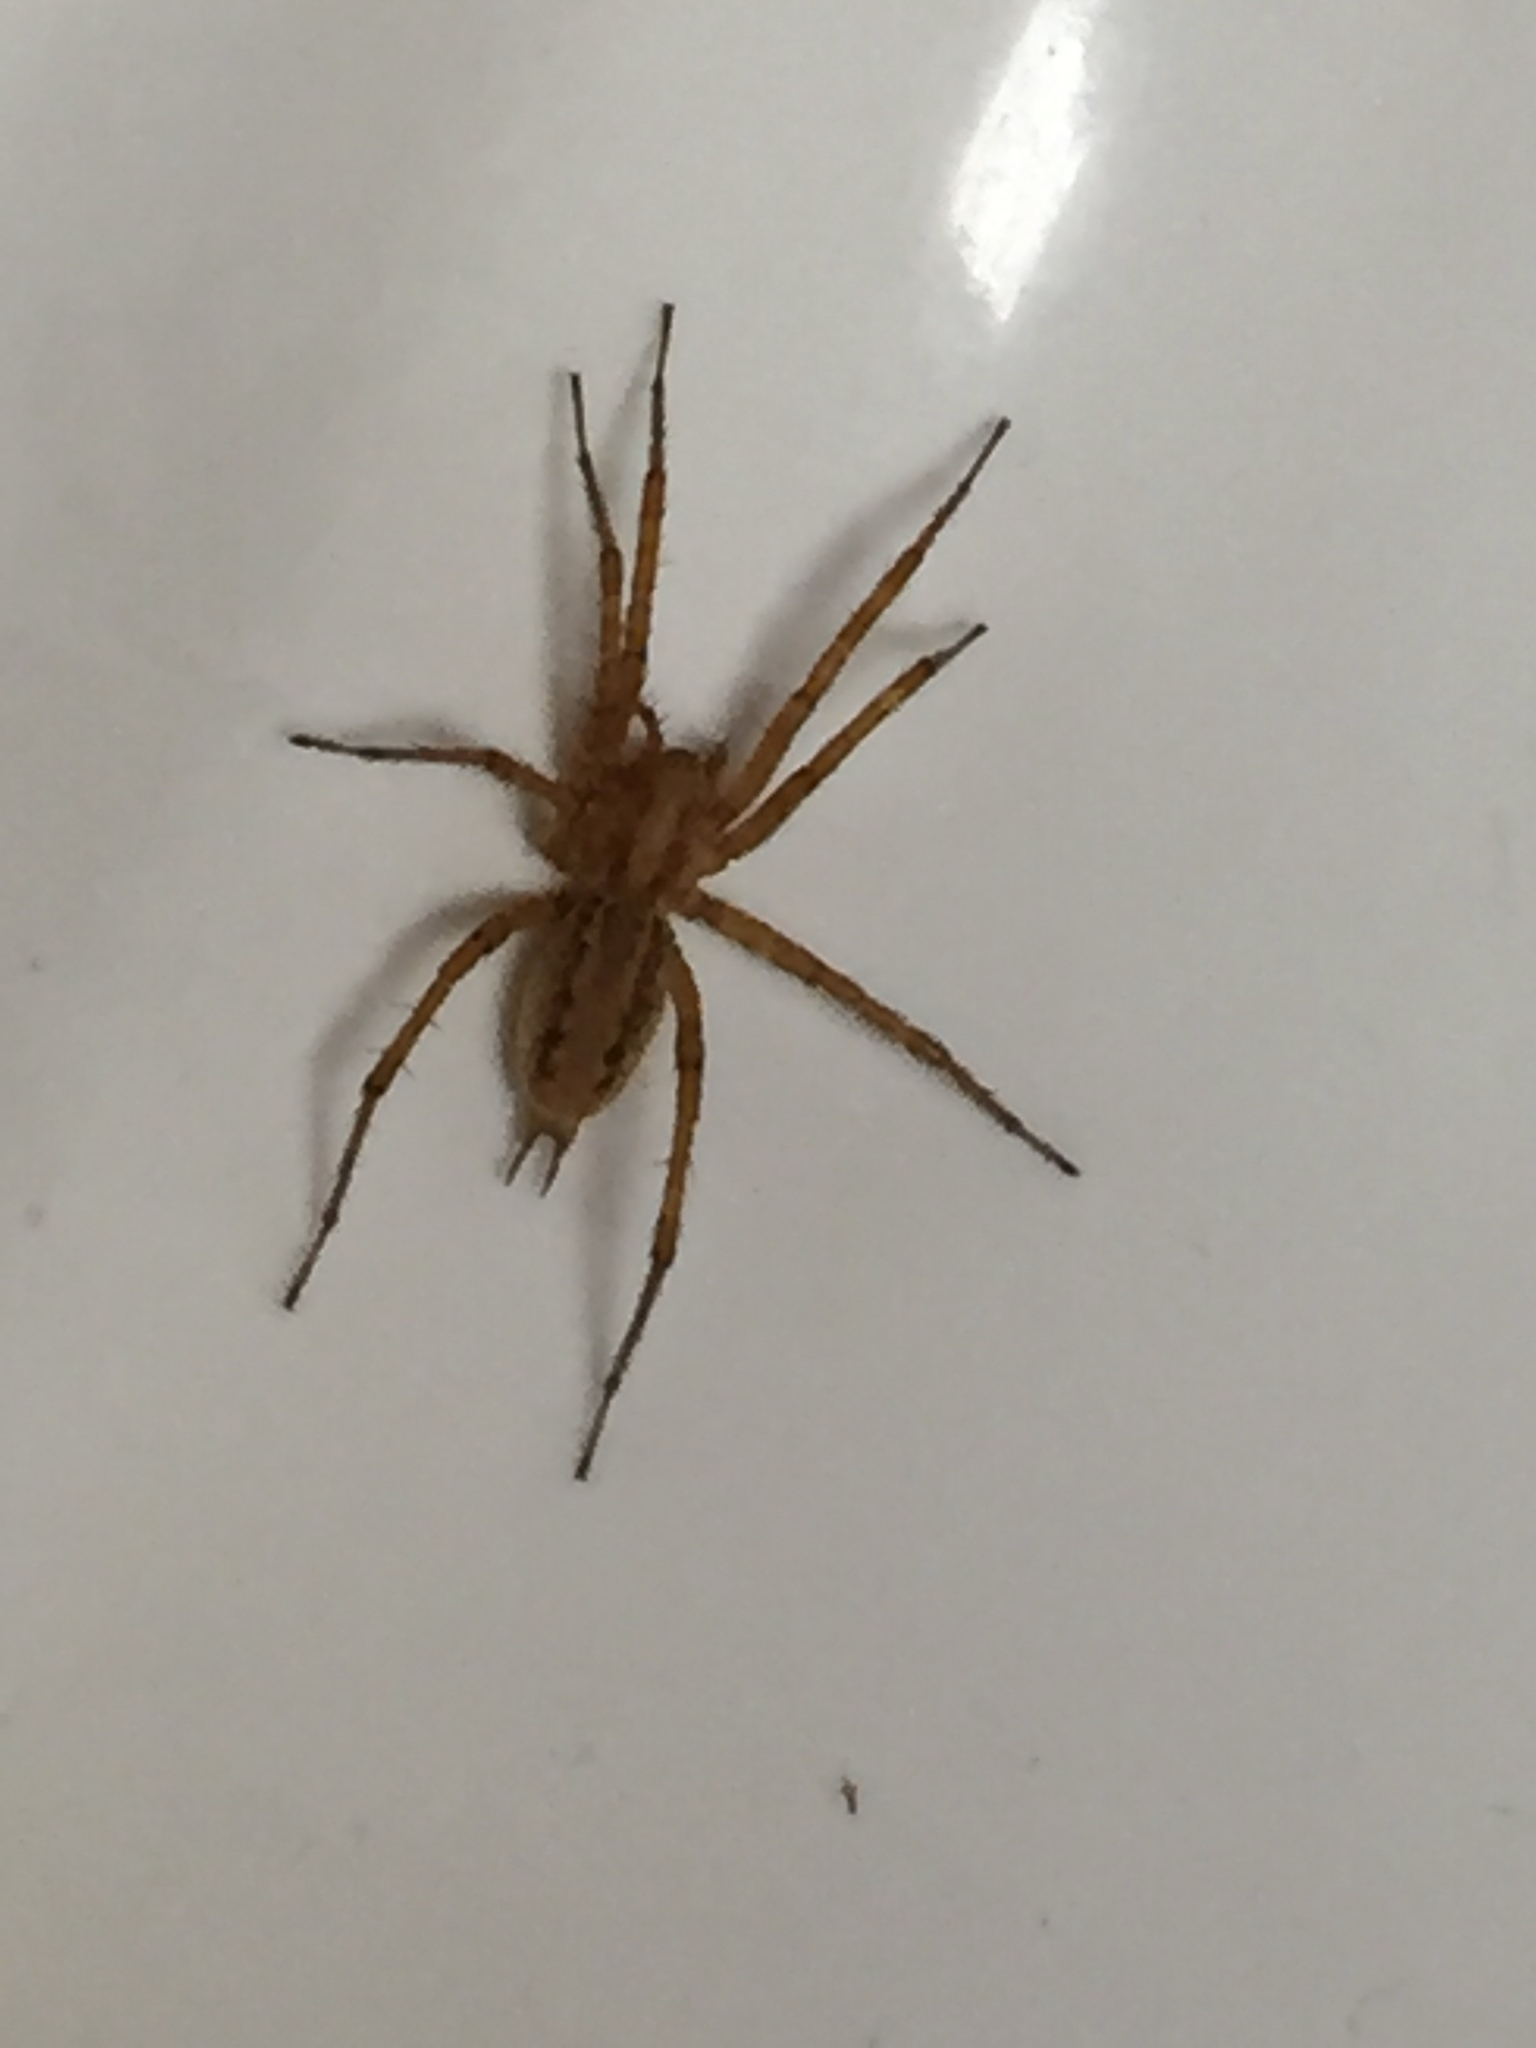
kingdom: Animalia
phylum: Arthropoda
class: Arachnida
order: Araneae
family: Agelenidae
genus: Agelenopsis
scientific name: Agelenopsis
